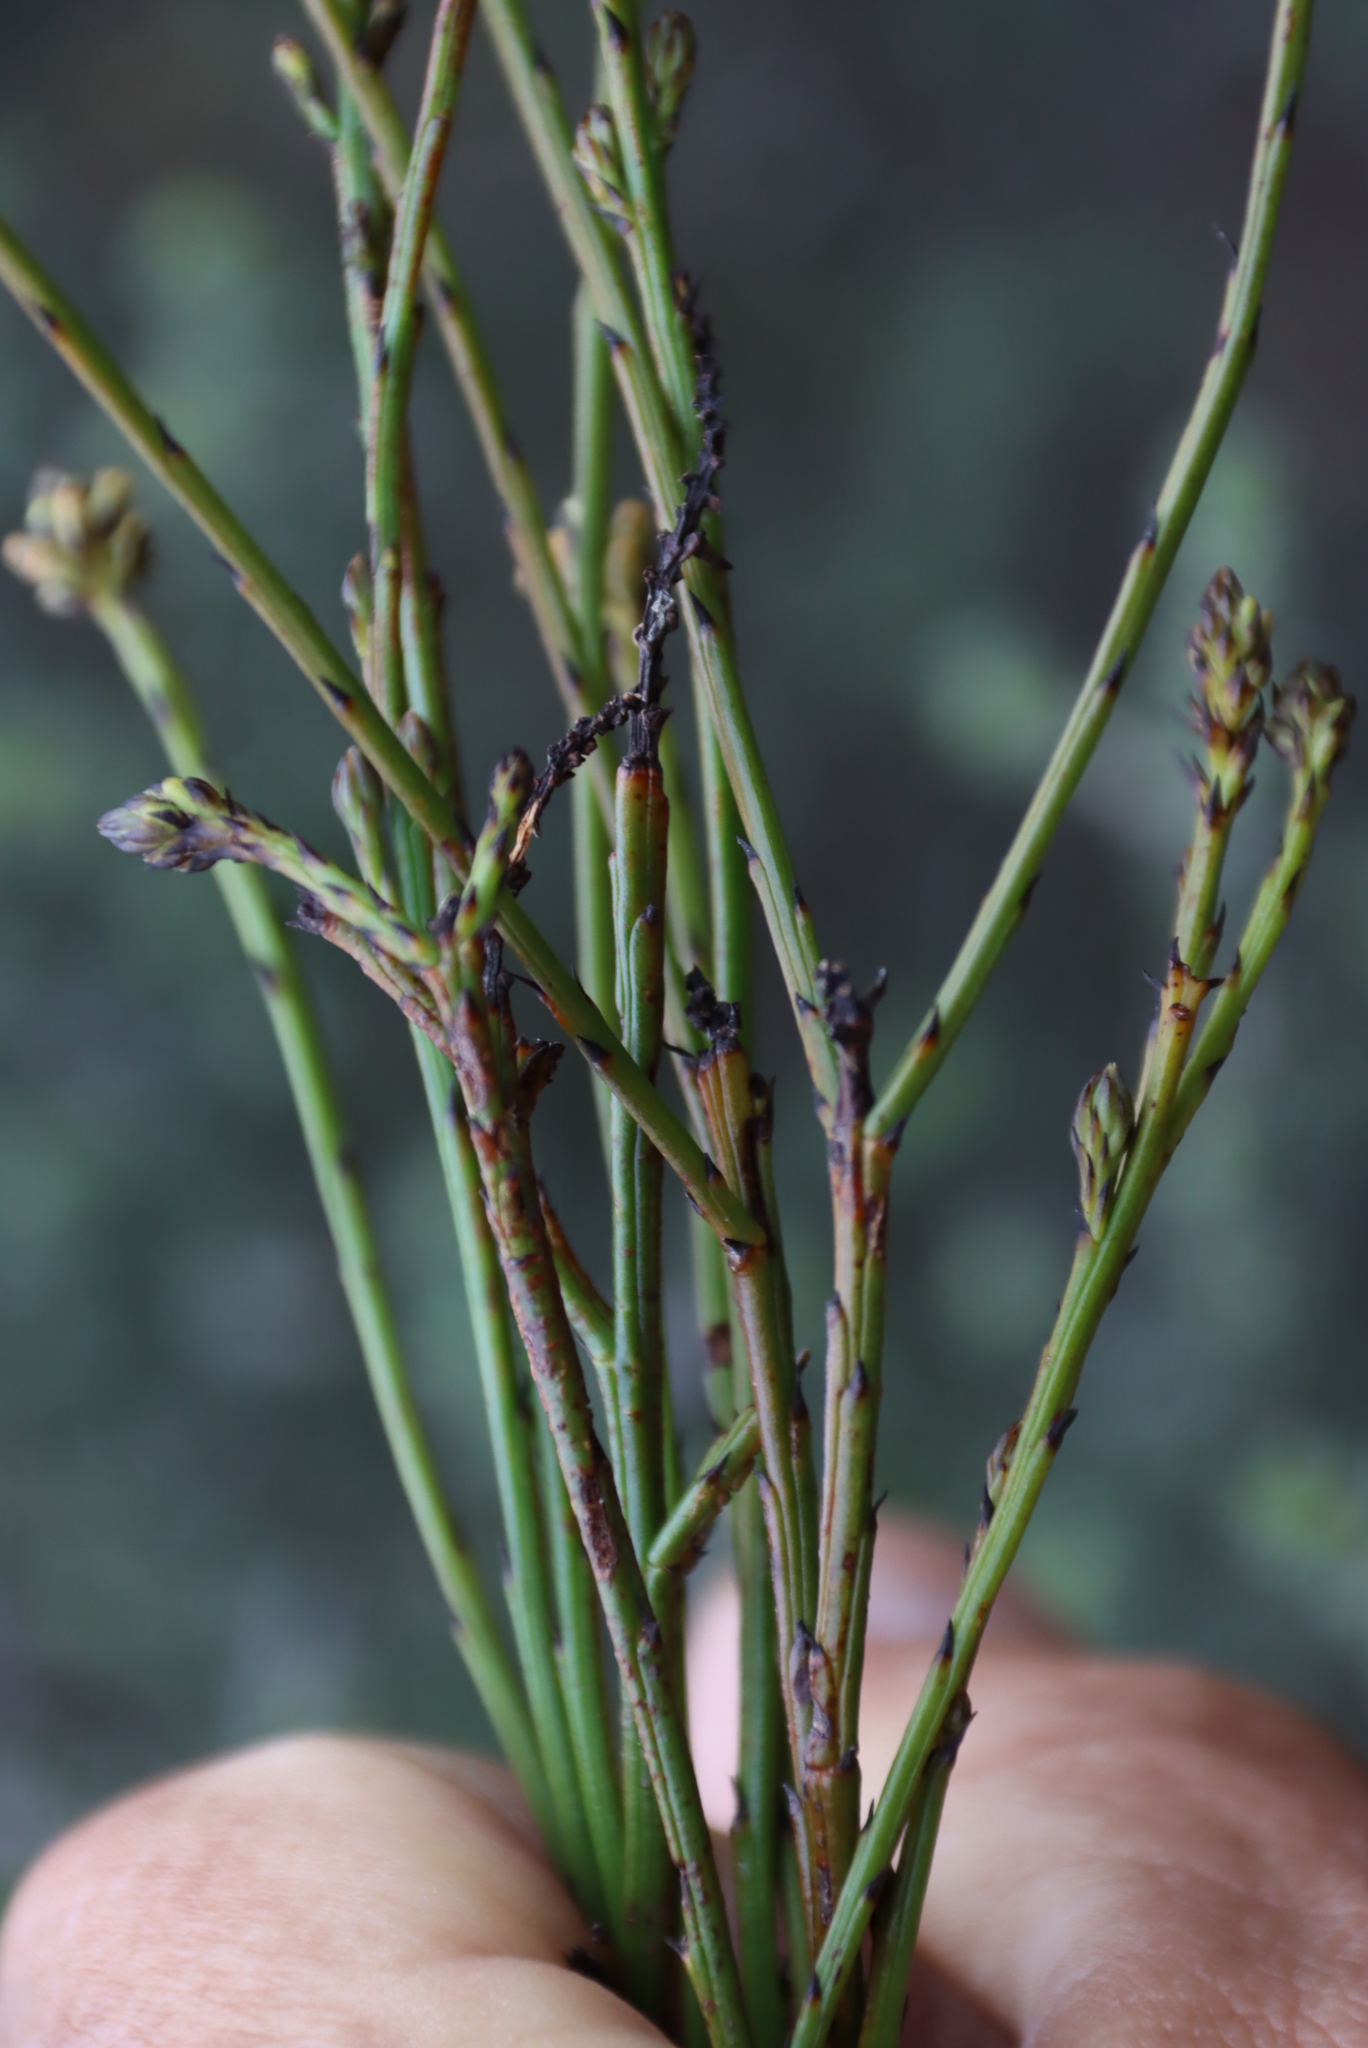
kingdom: Plantae
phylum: Tracheophyta
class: Magnoliopsida
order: Santalales
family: Thesiaceae
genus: Thesium
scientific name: Thesium aggregatum
